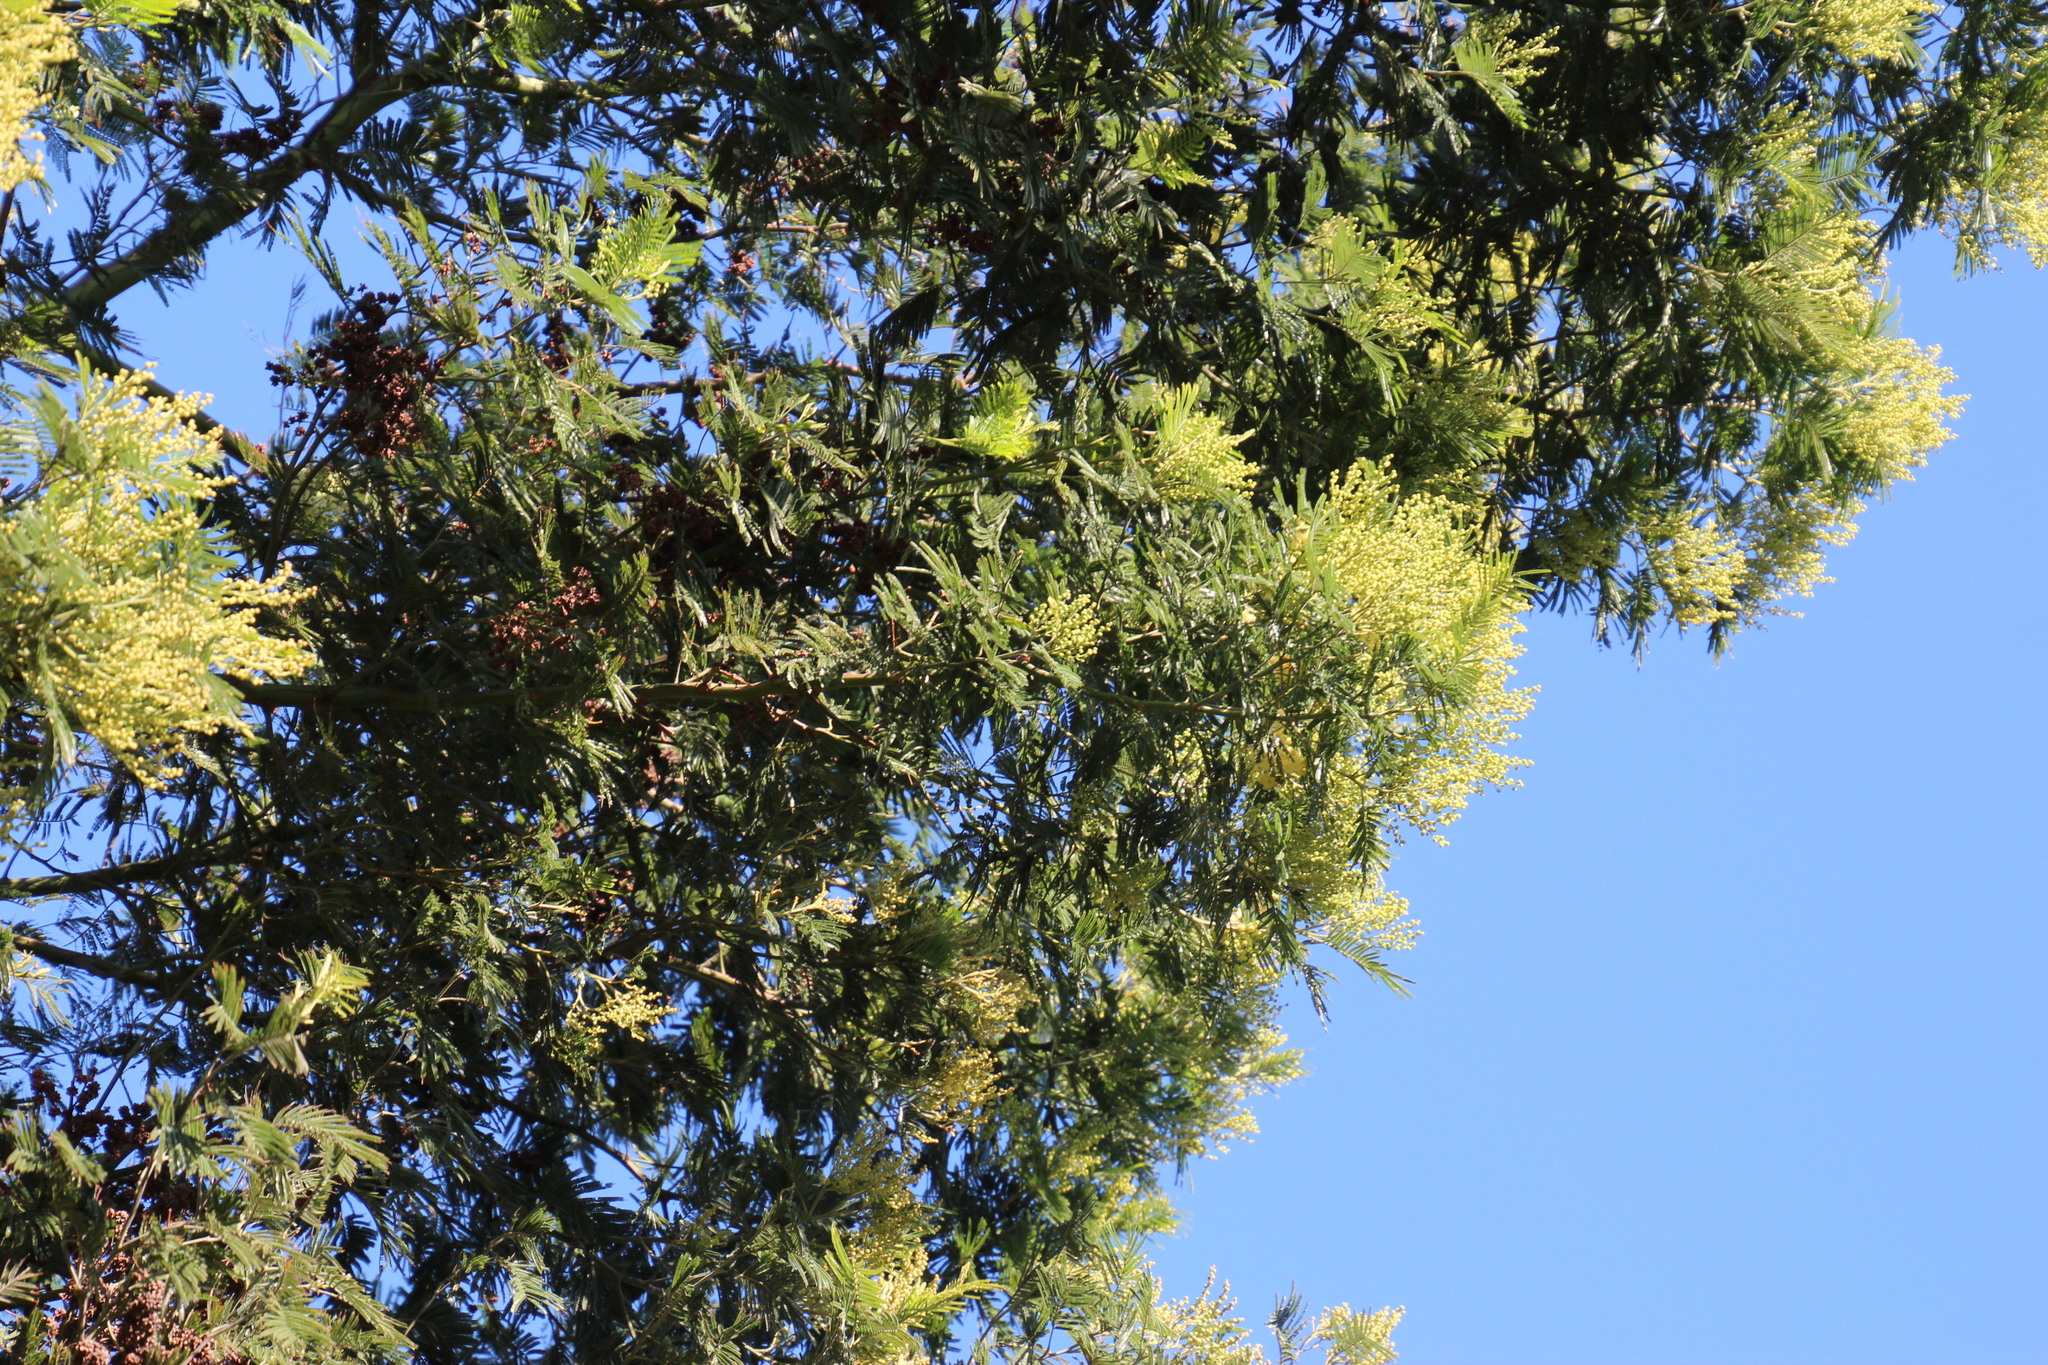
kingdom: Plantae
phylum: Tracheophyta
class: Magnoliopsida
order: Fabales
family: Fabaceae
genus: Acacia
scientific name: Acacia mearnsii
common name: Black wattle
